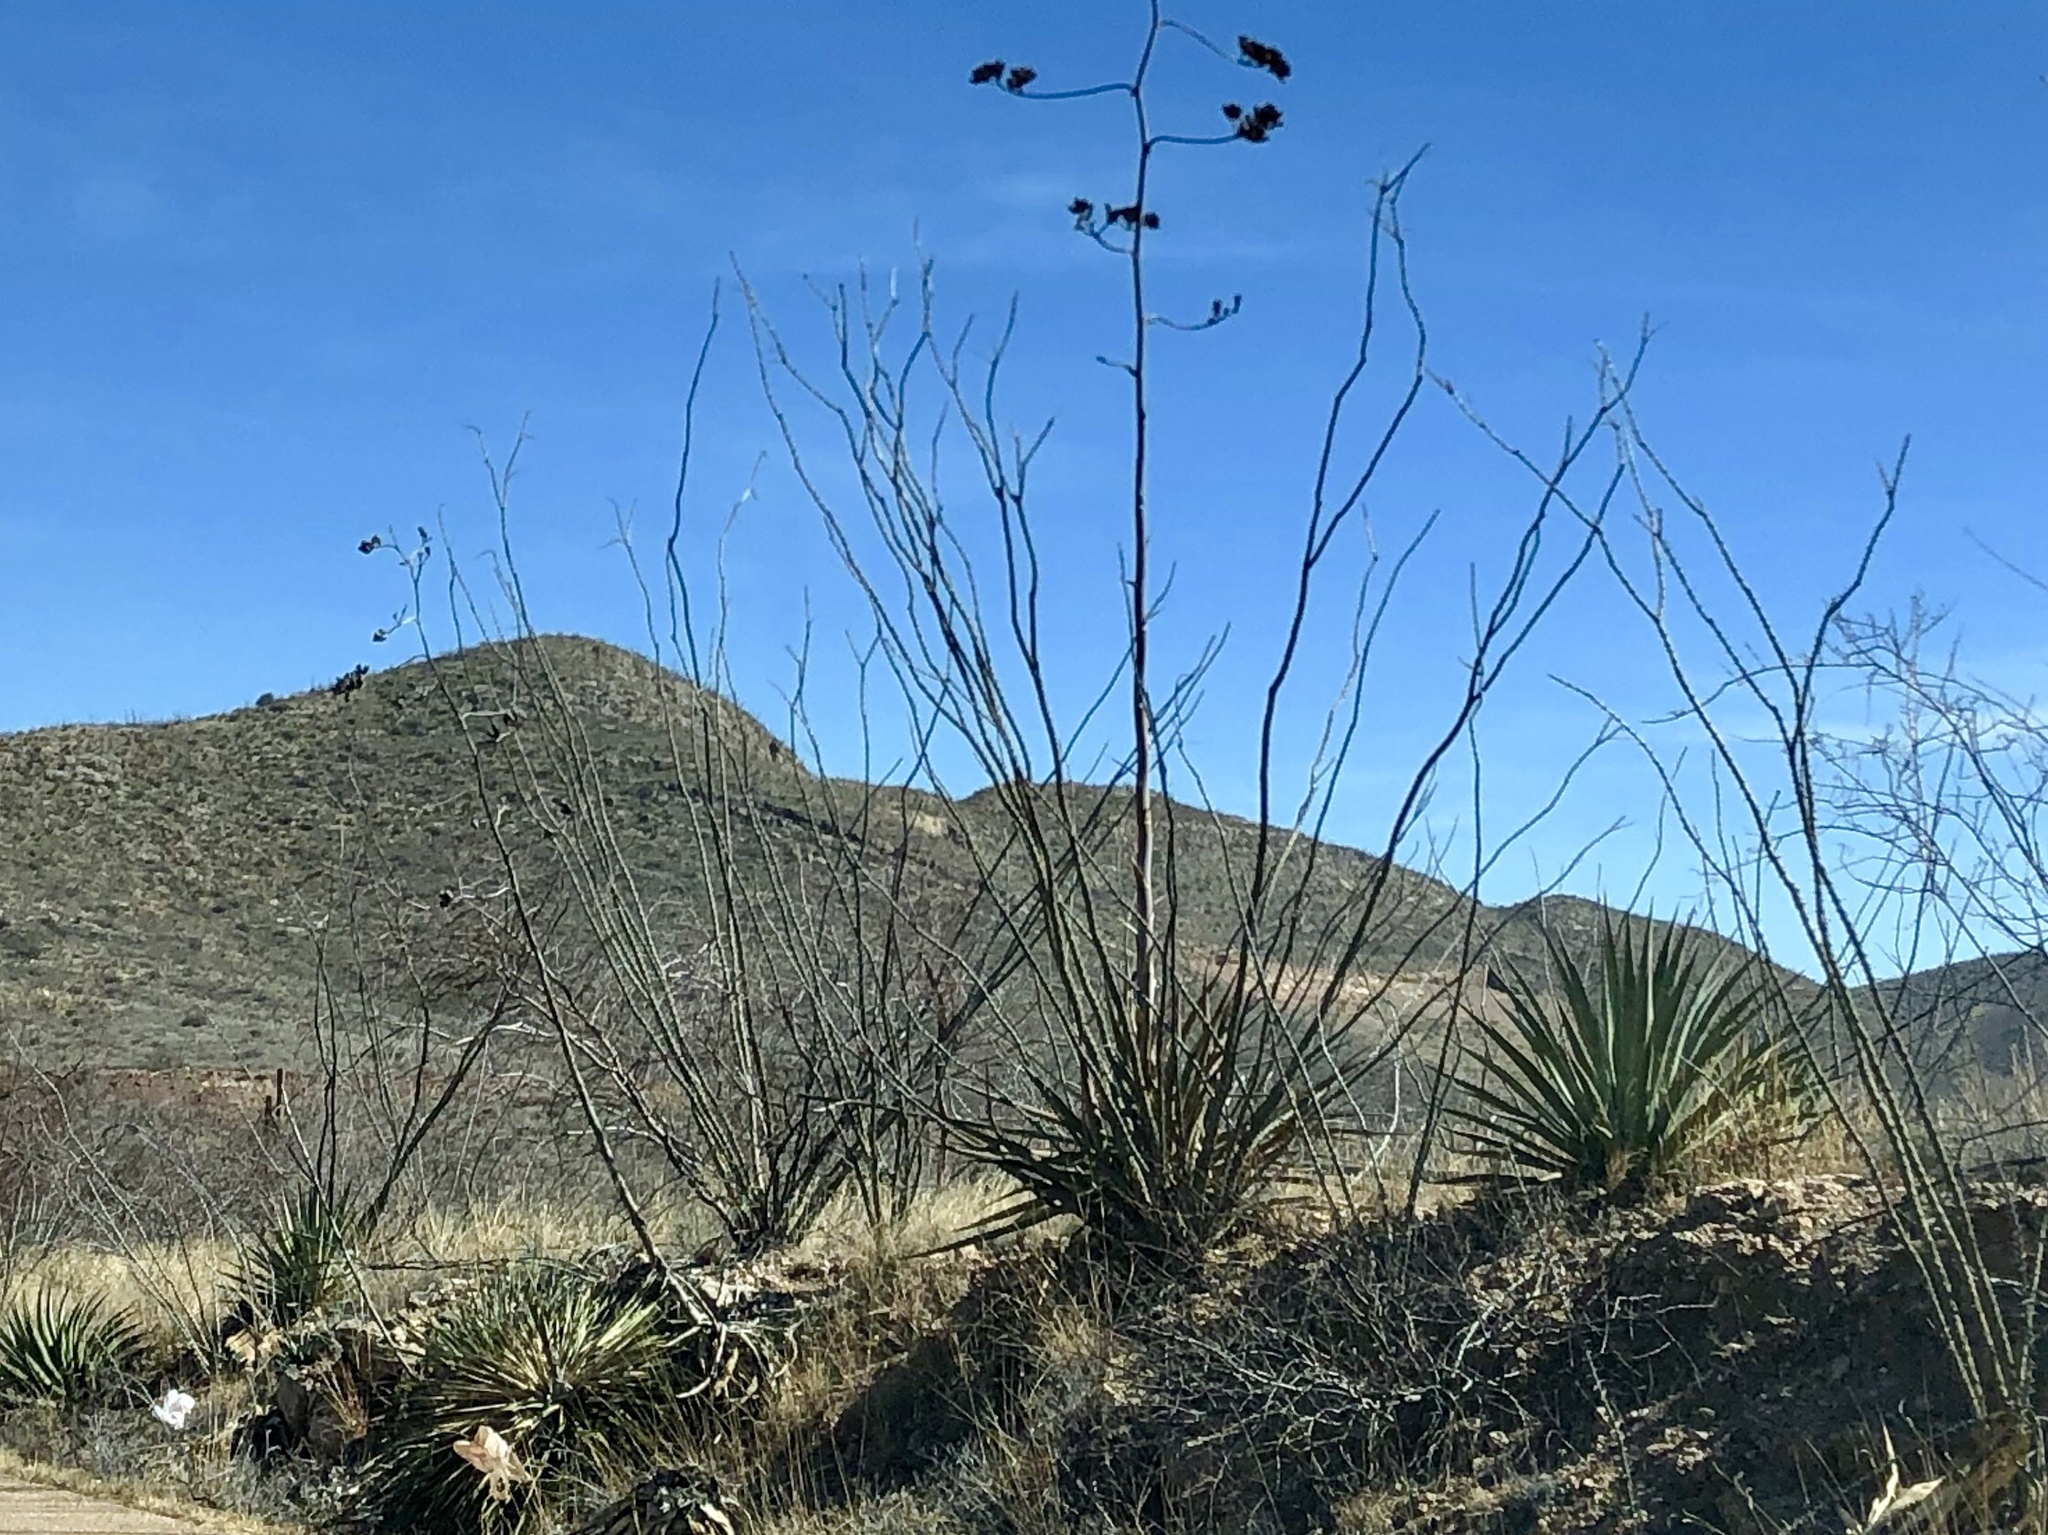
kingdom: Plantae
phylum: Tracheophyta
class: Magnoliopsida
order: Ericales
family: Fouquieriaceae
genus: Fouquieria
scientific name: Fouquieria splendens
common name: Vine-cactus
